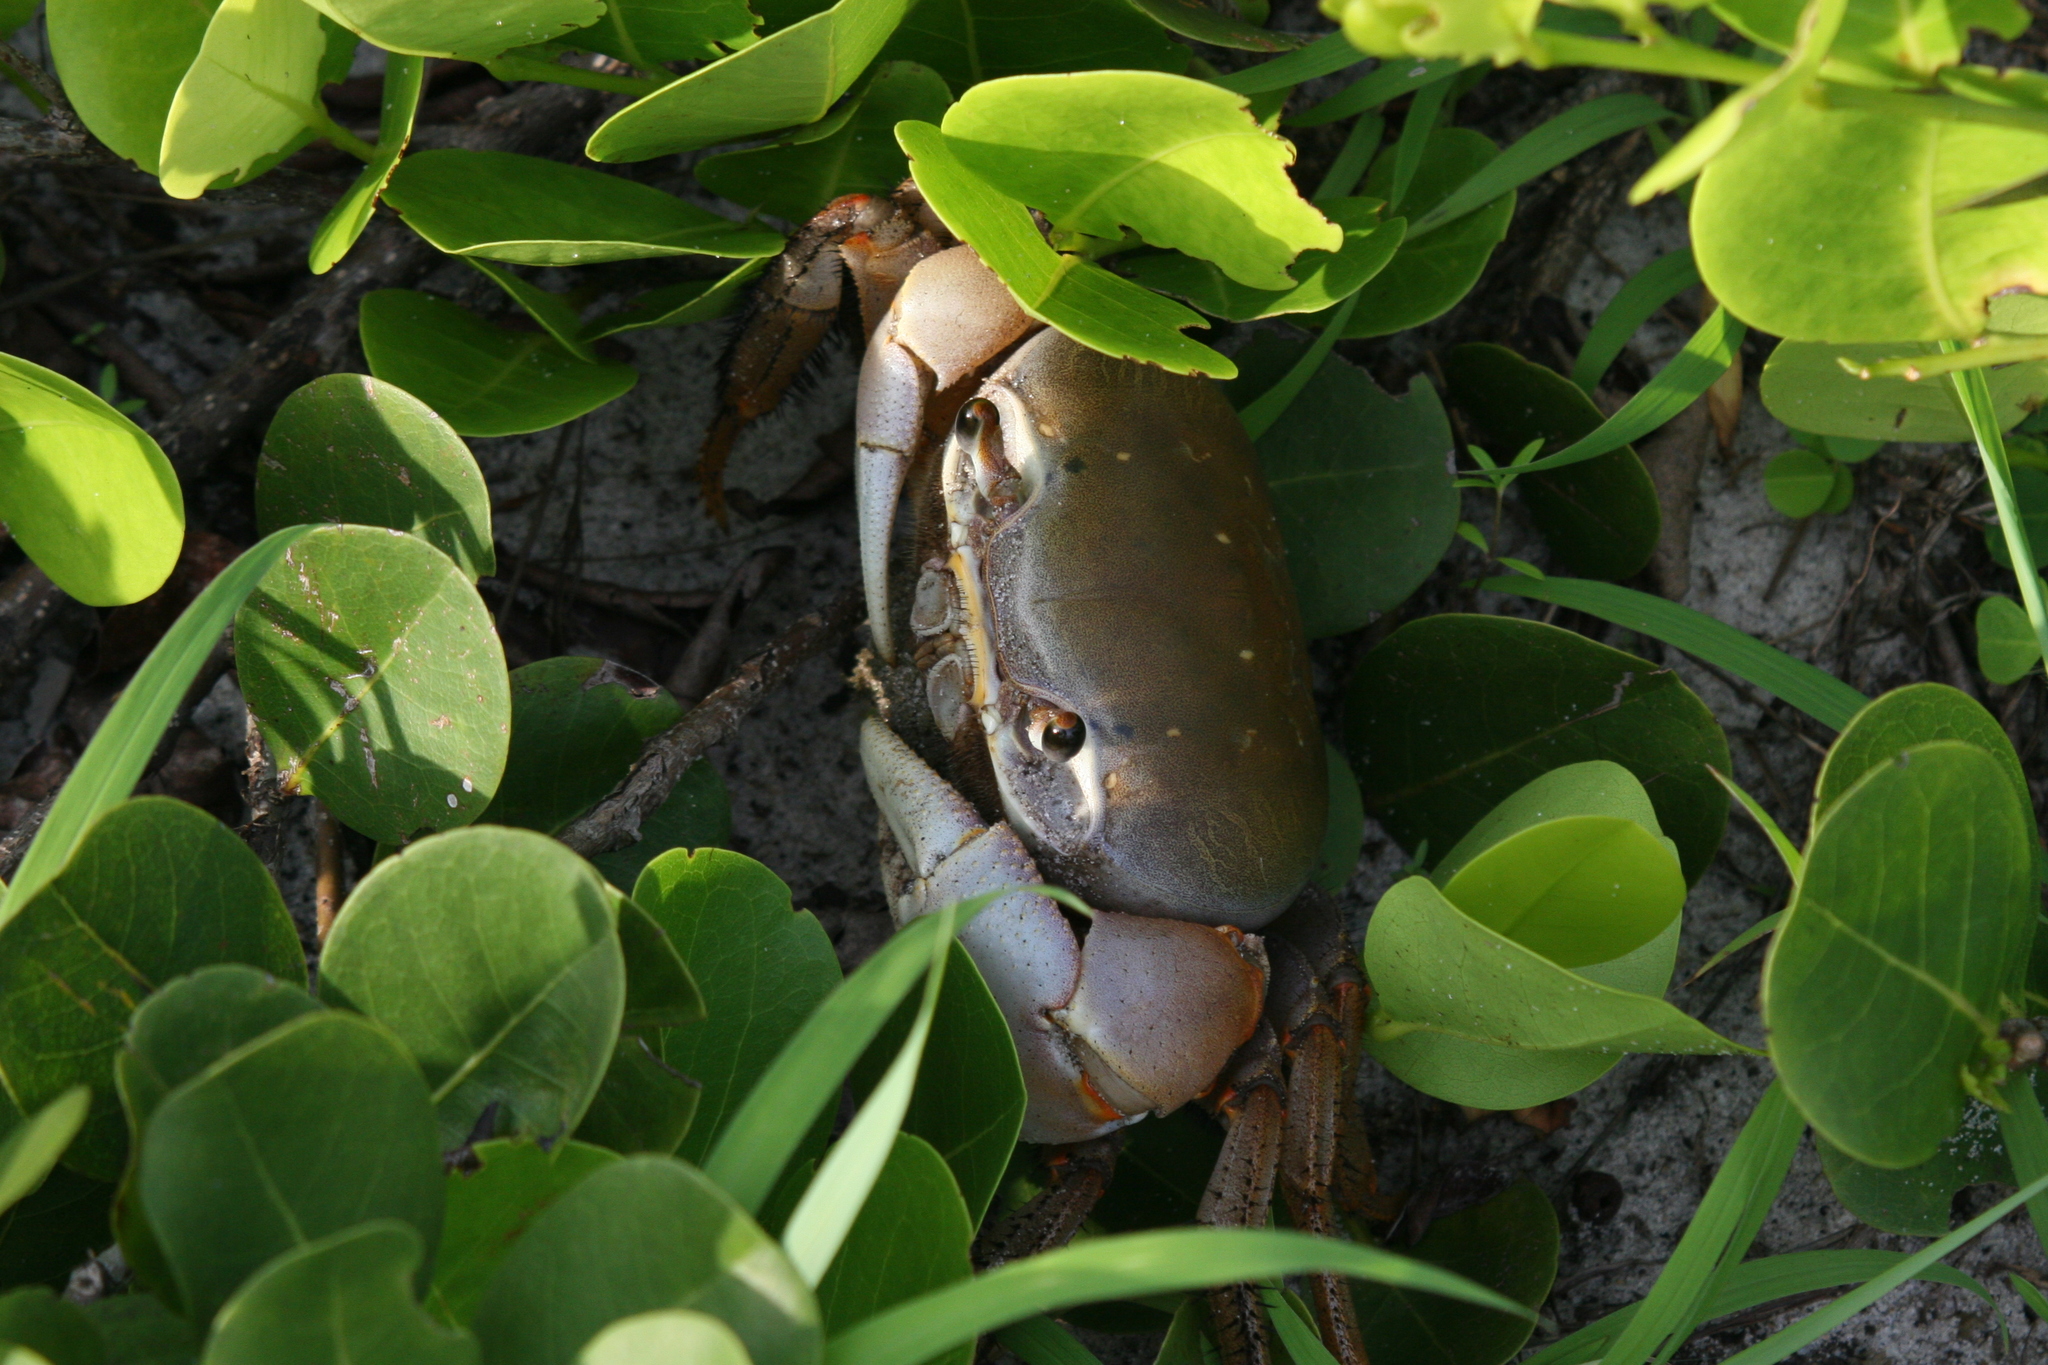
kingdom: Animalia
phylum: Arthropoda
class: Malacostraca
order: Decapoda
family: Gecarcinidae
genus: Cardisoma
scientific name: Cardisoma armatum
